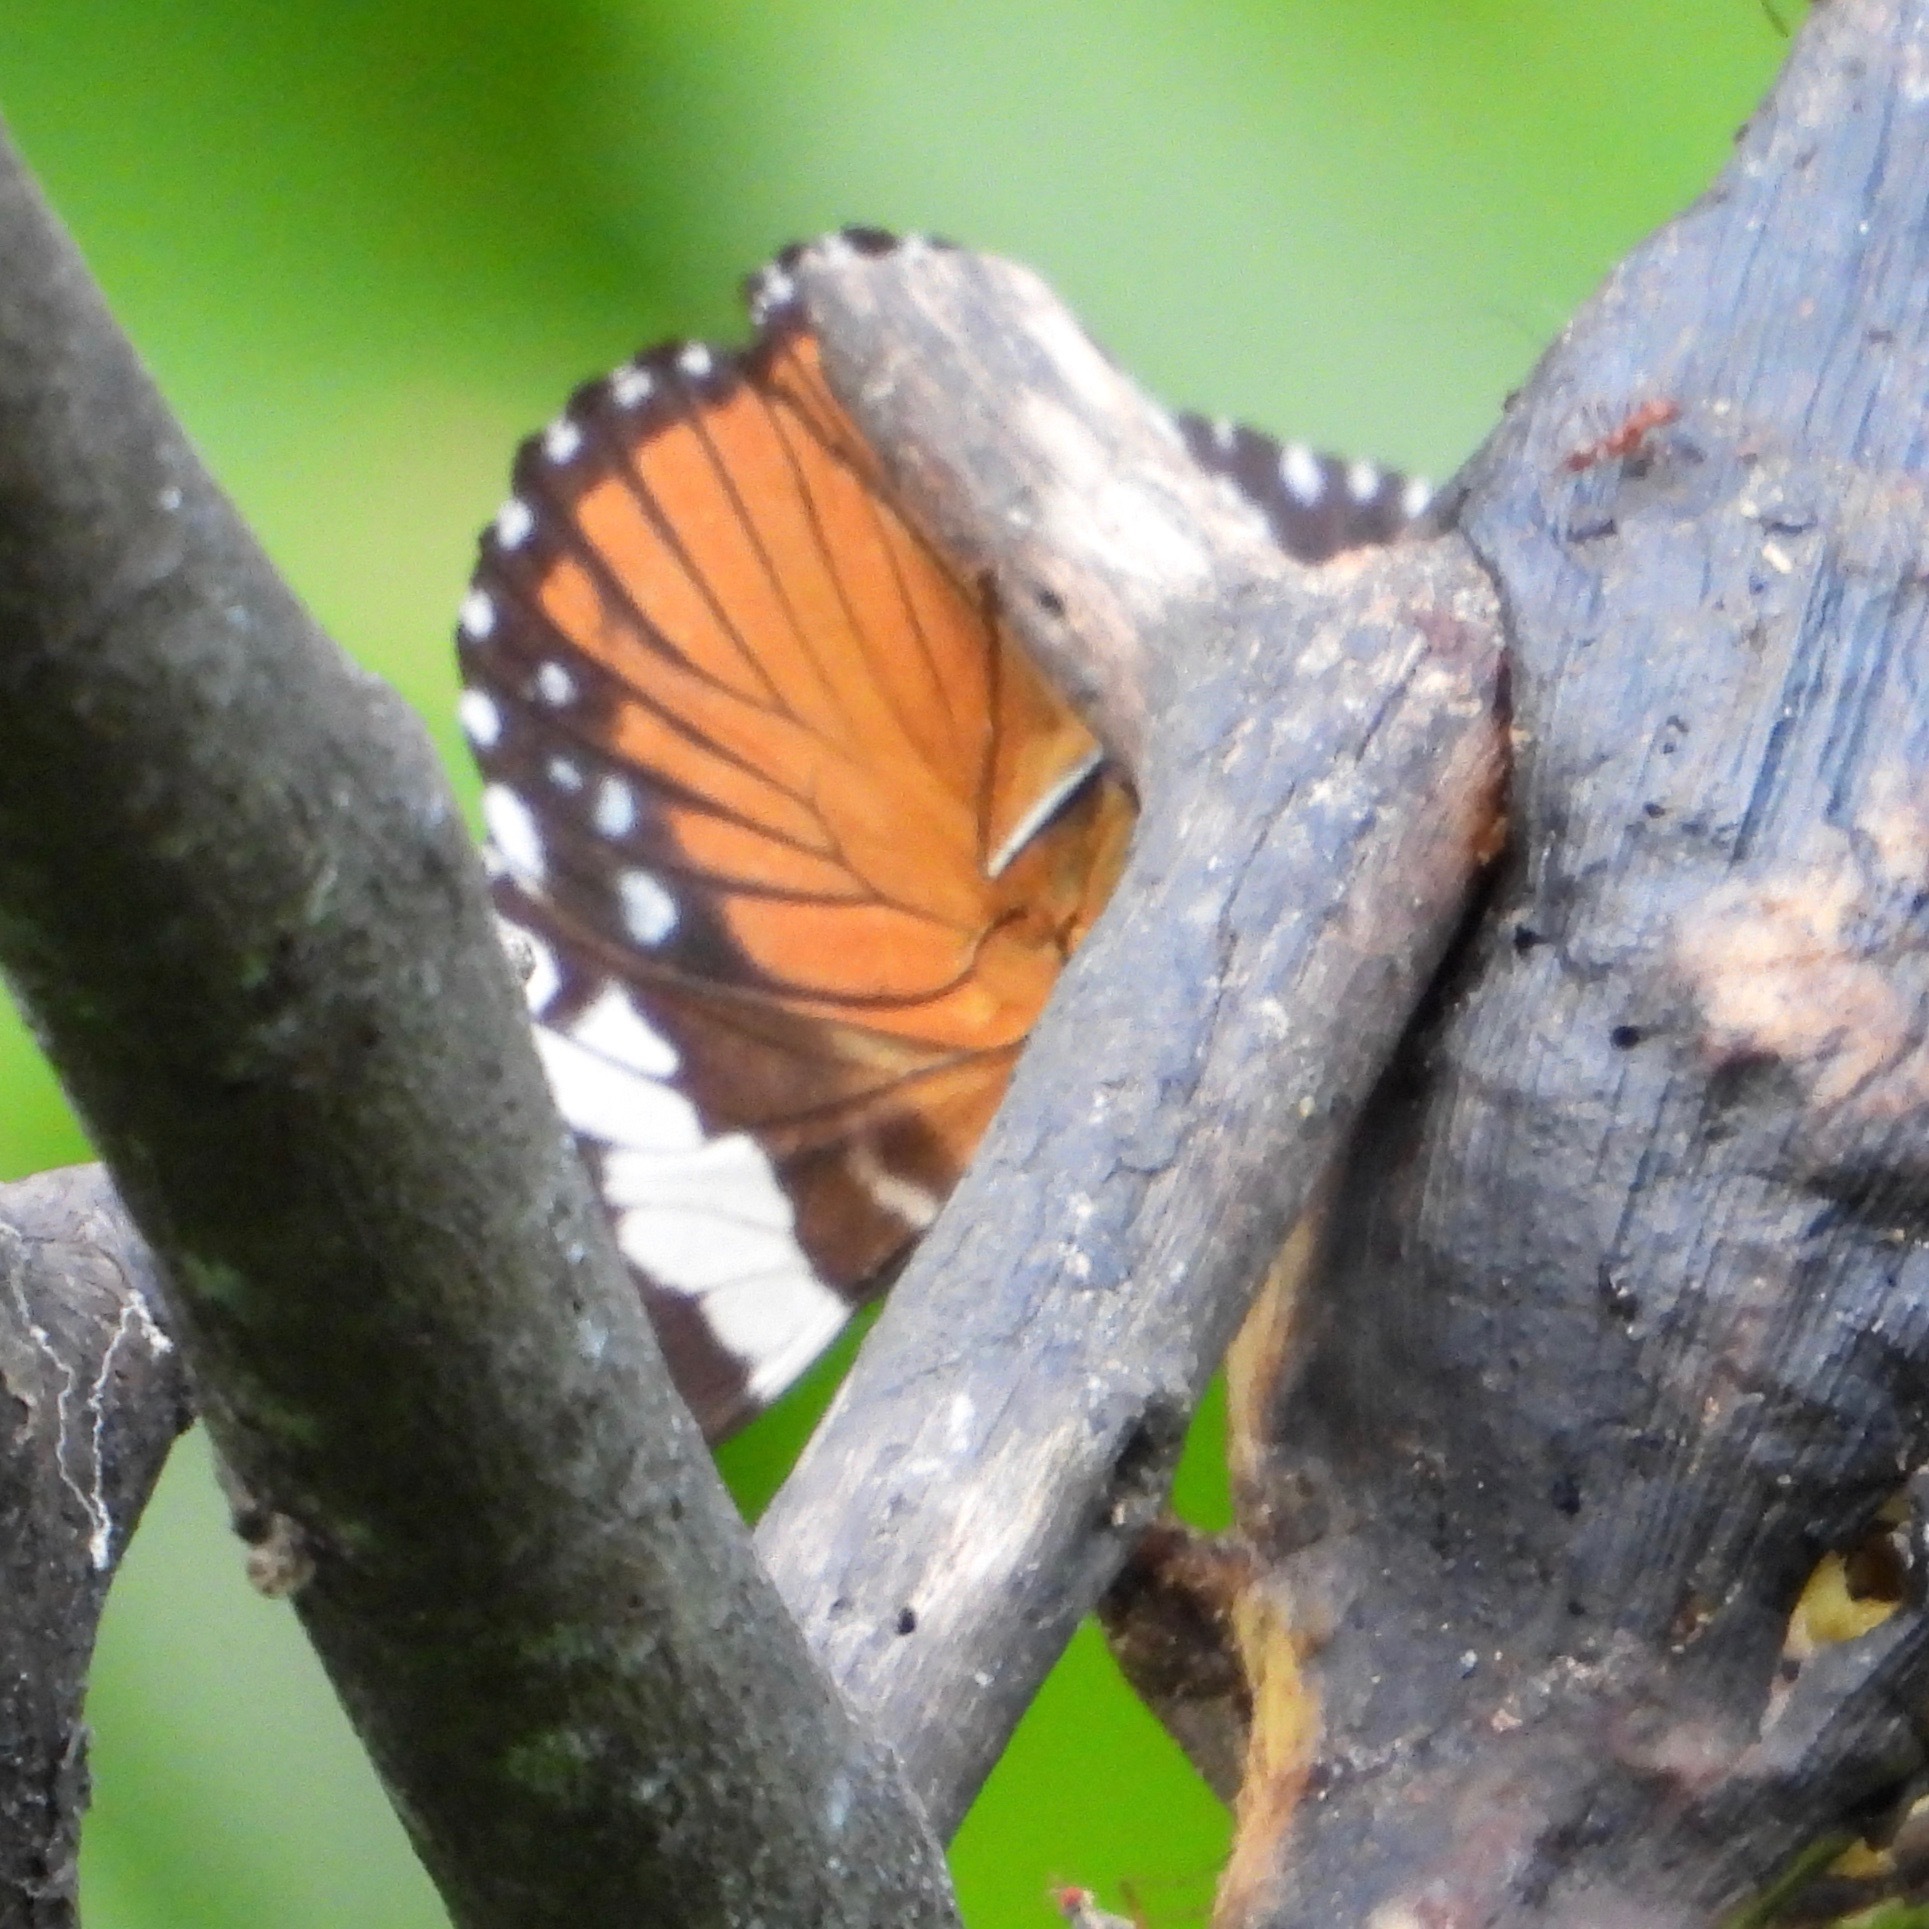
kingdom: Animalia
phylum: Arthropoda
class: Insecta
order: Lepidoptera
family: Nymphalidae
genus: Hamadryas
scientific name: Hamadryas amphinome
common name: Red cracker
